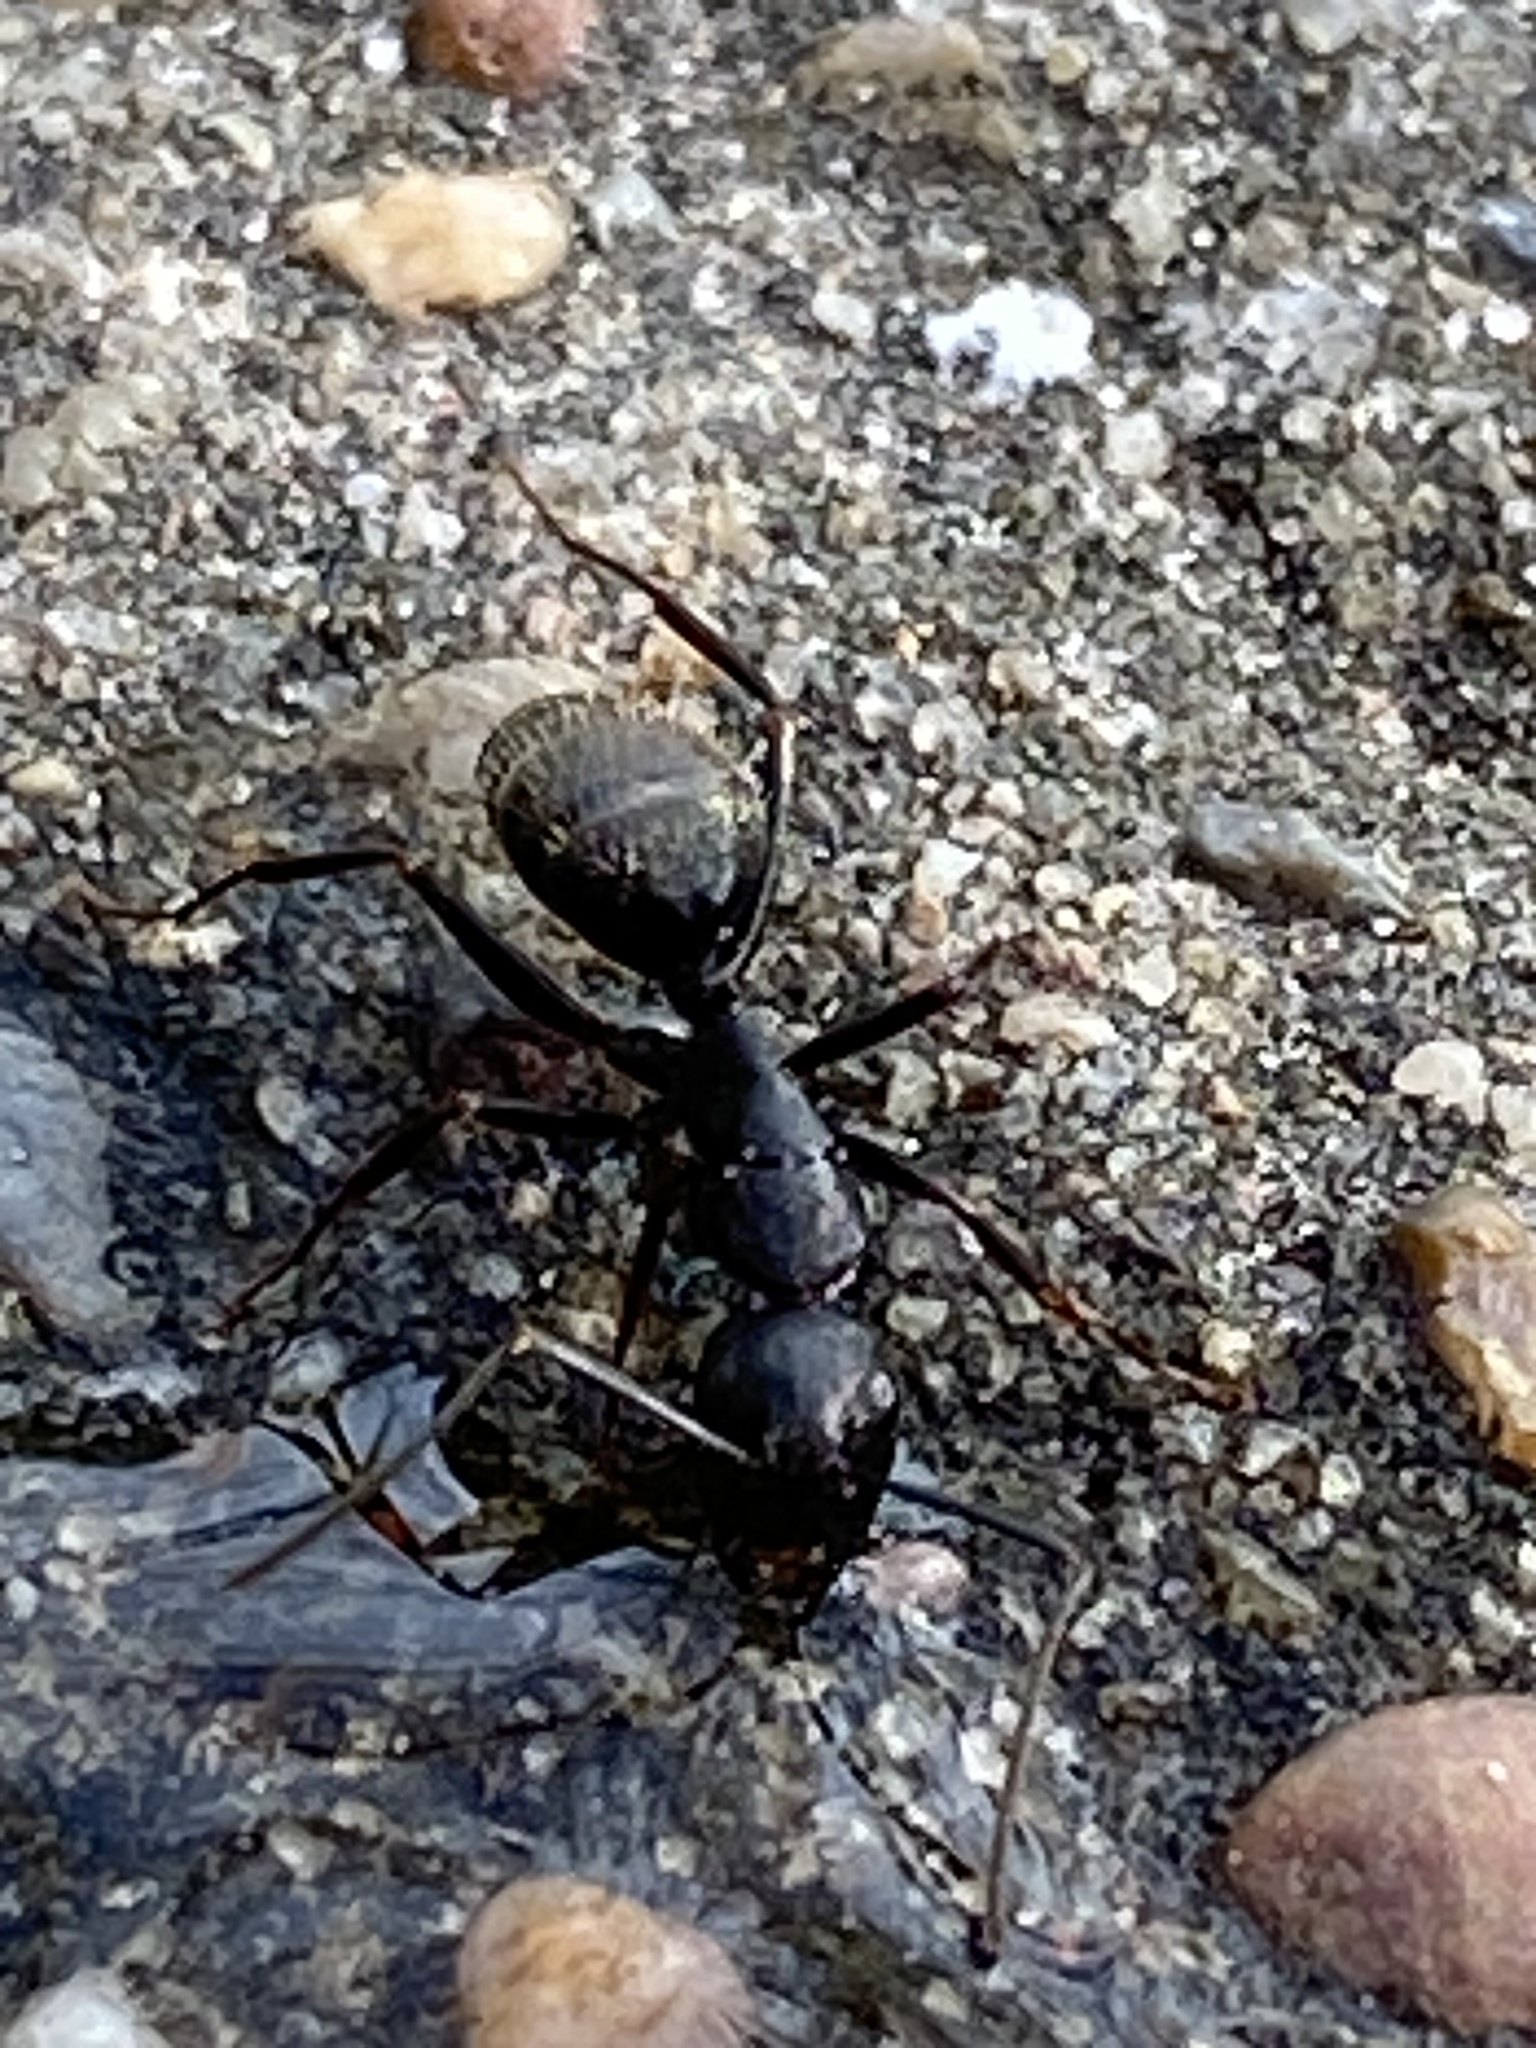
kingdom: Animalia
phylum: Arthropoda
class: Insecta
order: Hymenoptera
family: Formicidae
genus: Camponotus
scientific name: Camponotus pennsylvanicus
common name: Black carpenter ant
